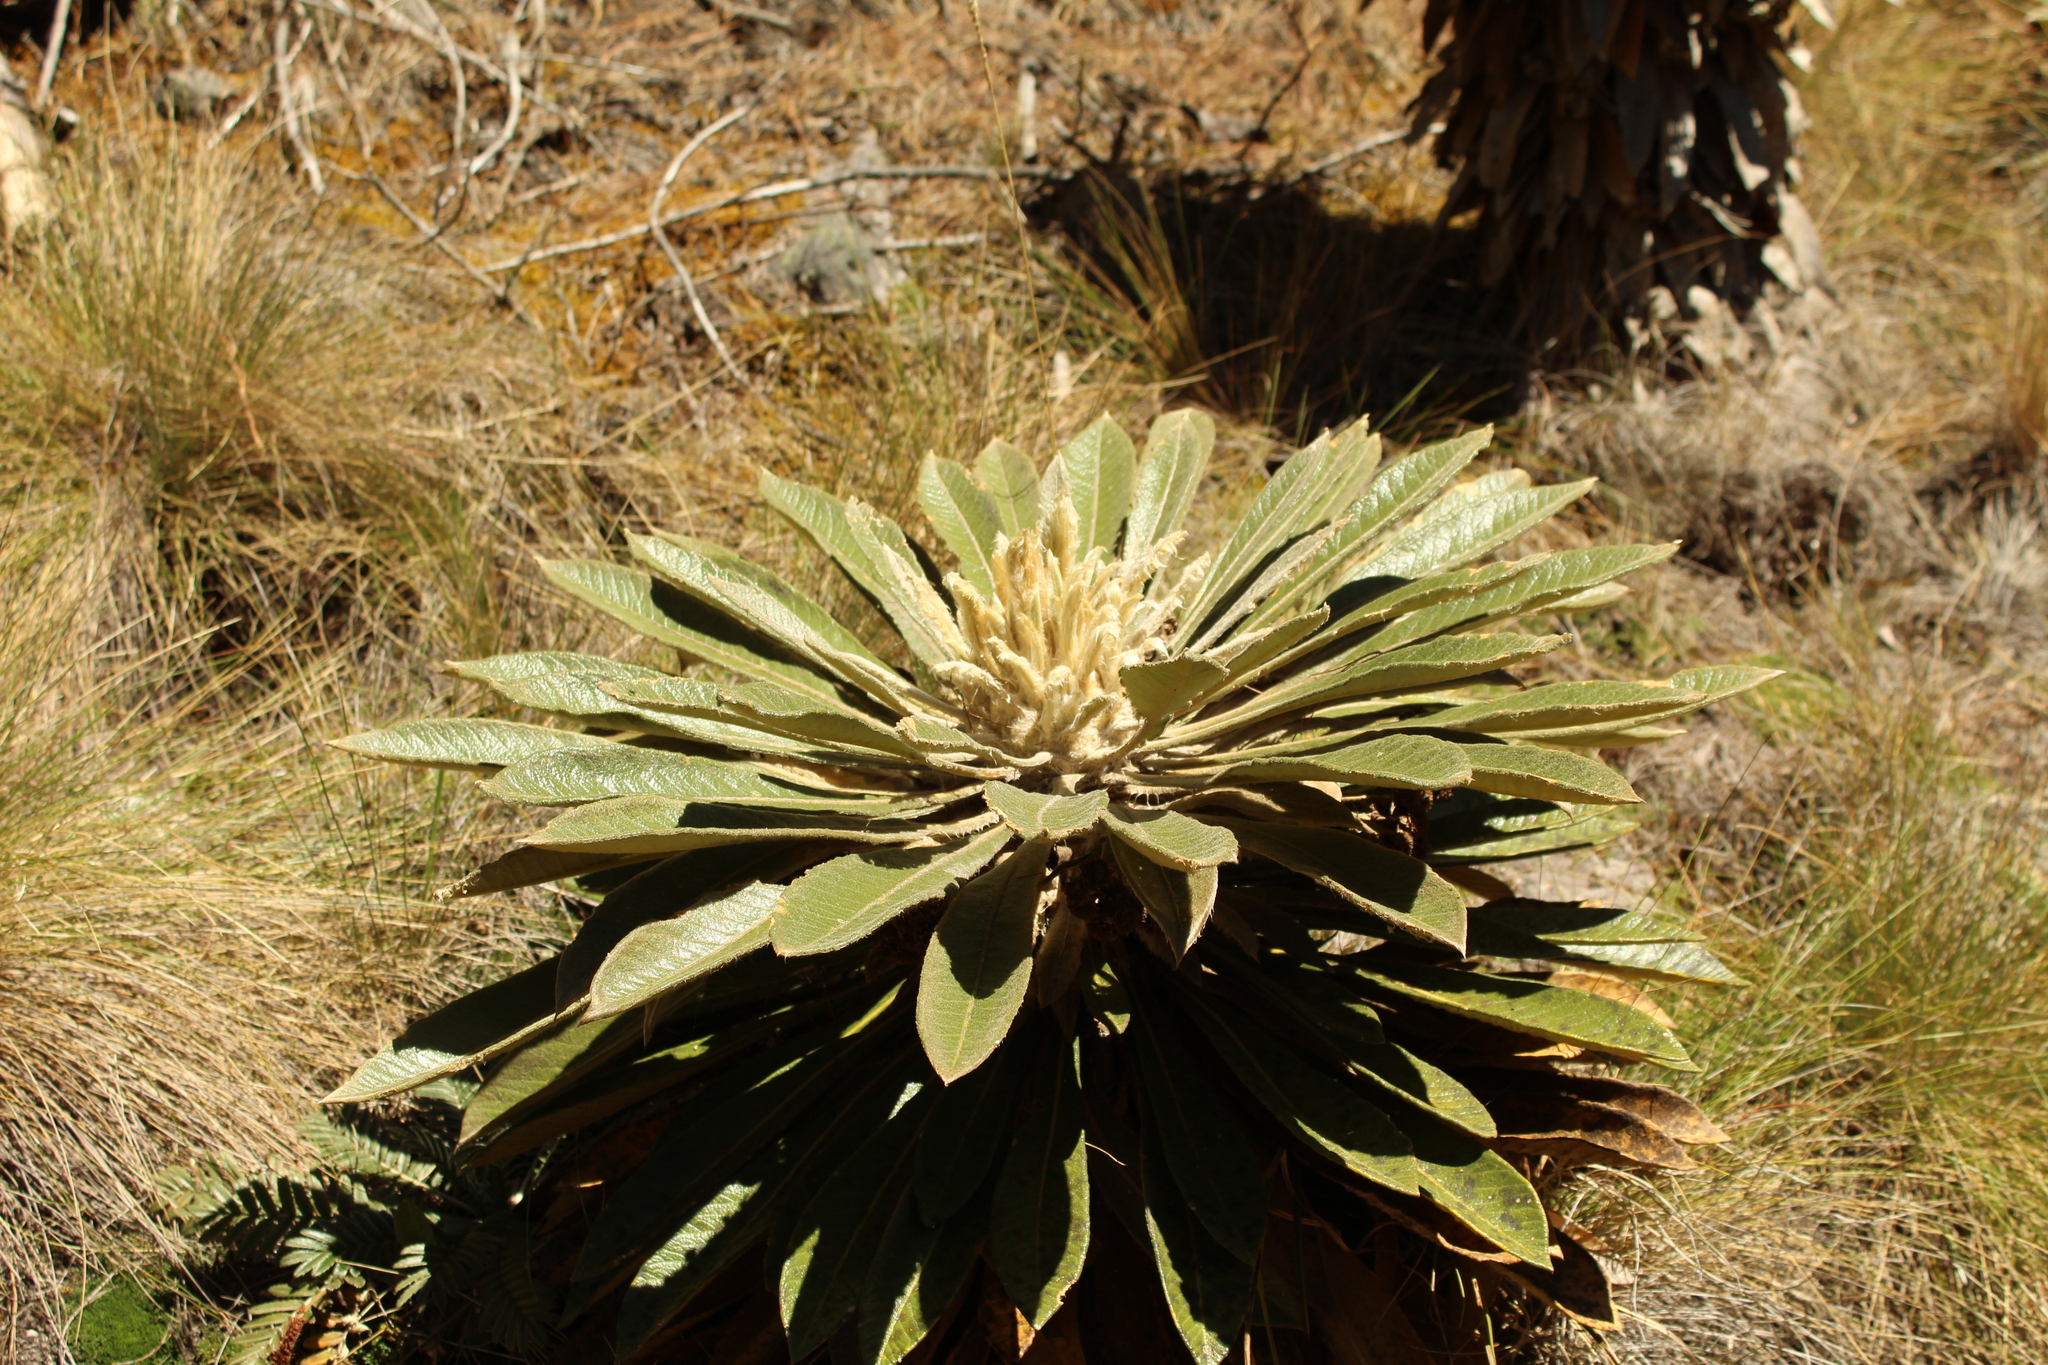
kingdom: Plantae
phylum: Tracheophyta
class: Magnoliopsida
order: Asterales
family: Asteraceae
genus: Espeletia
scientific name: Espeletia guacharaca
